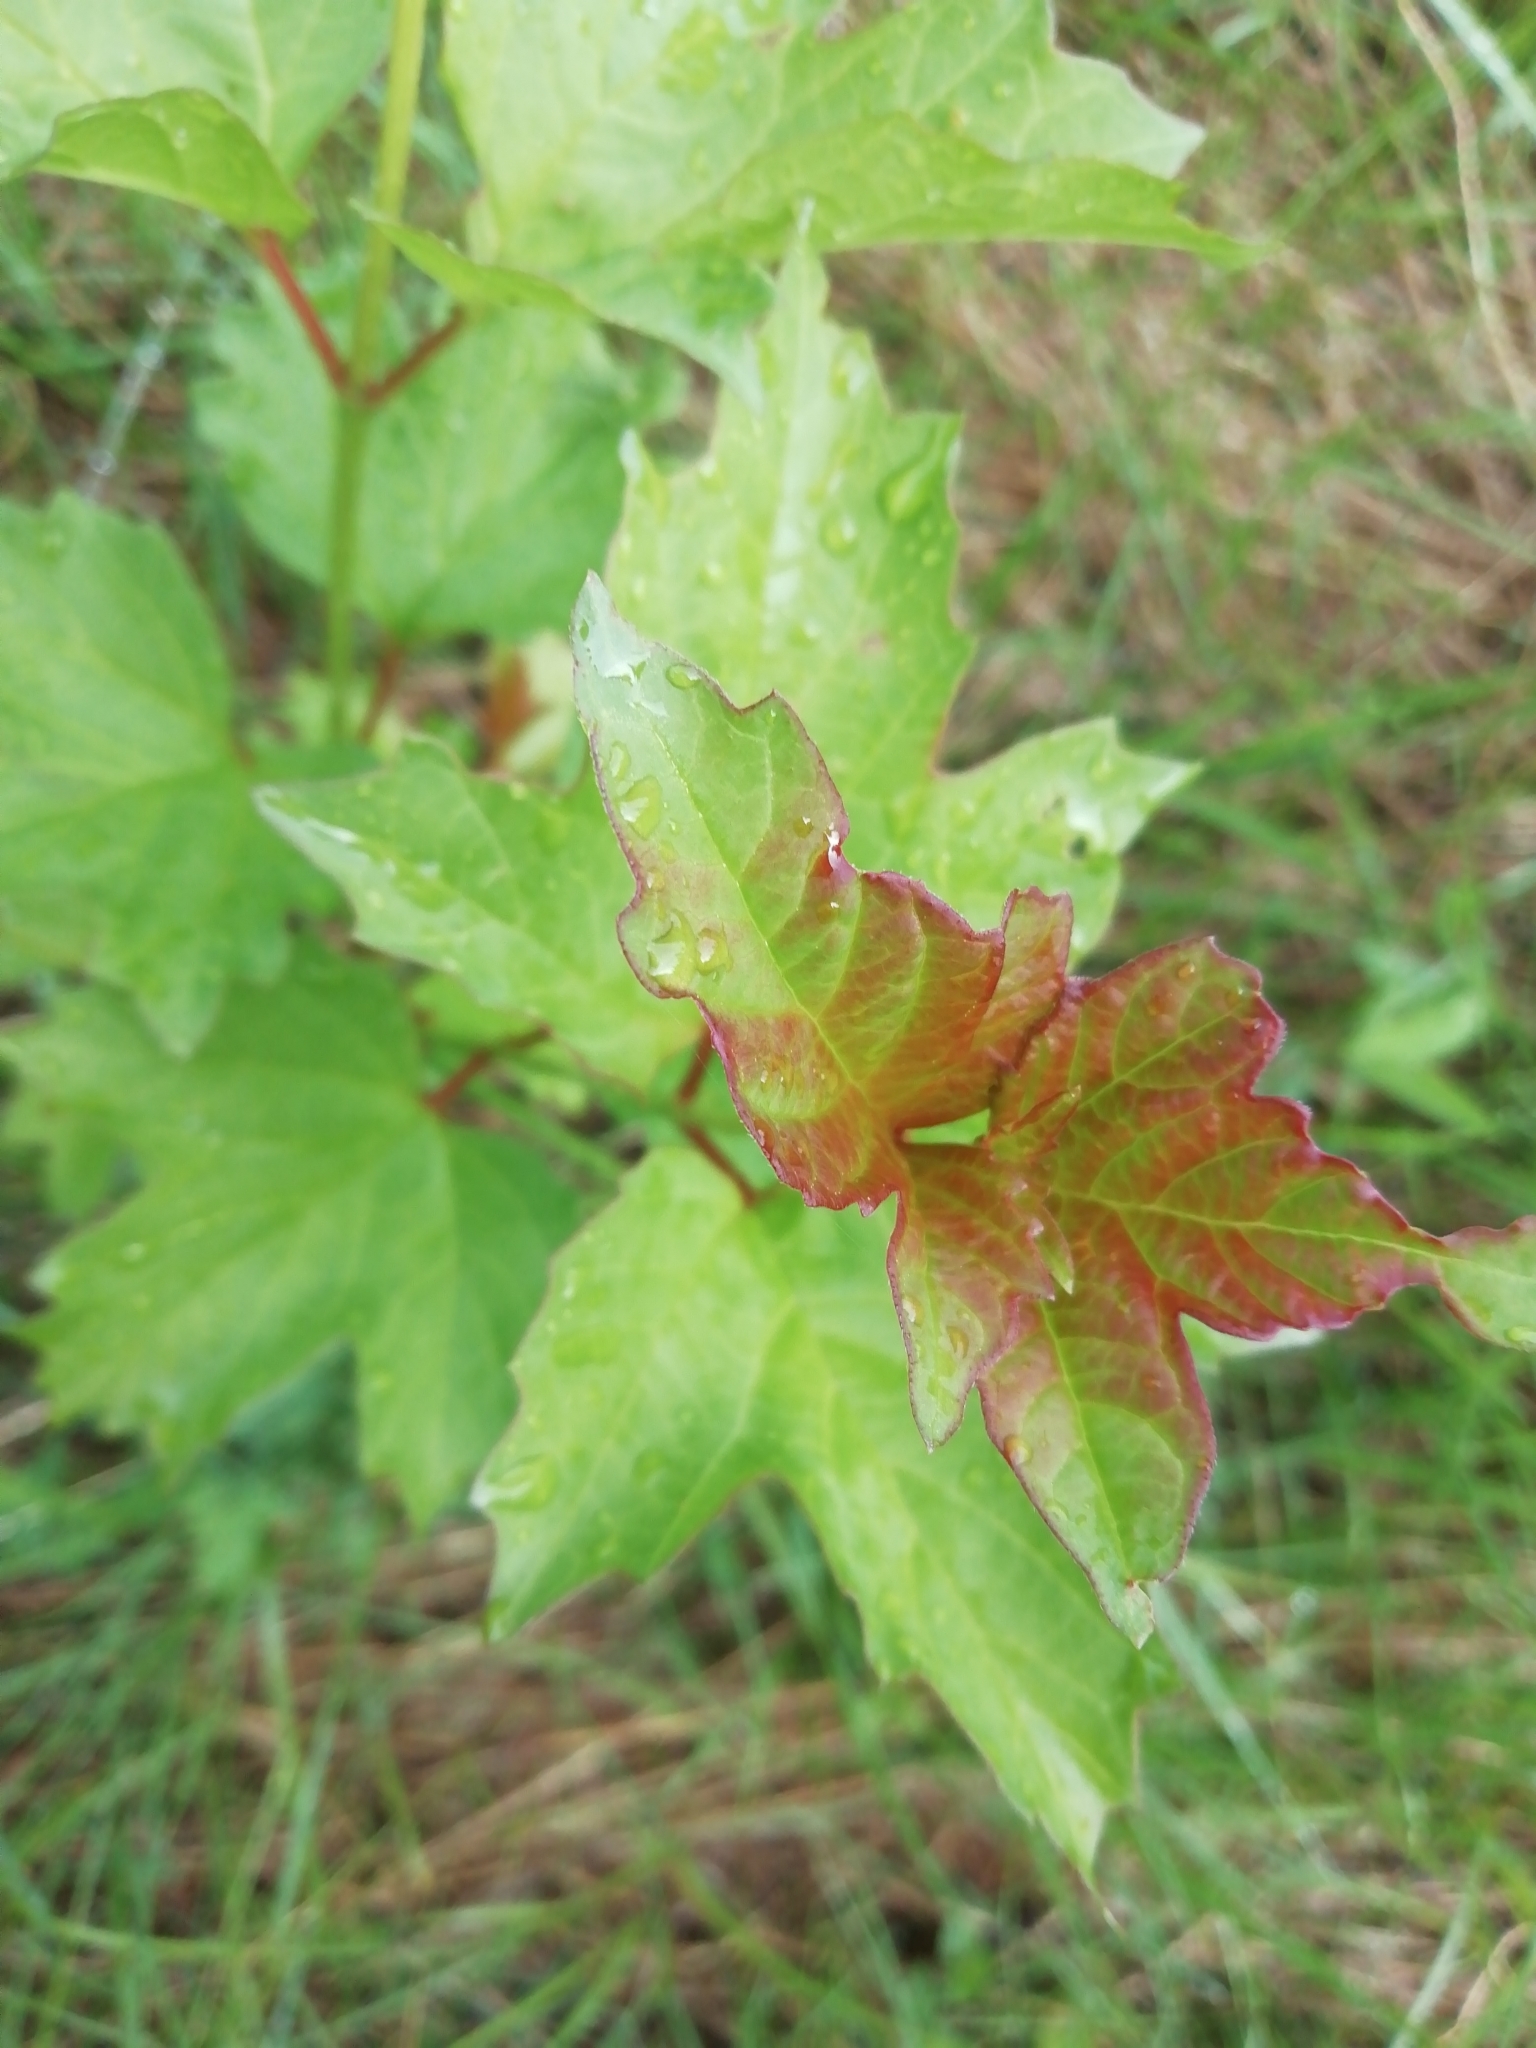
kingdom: Plantae
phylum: Tracheophyta
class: Magnoliopsida
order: Dipsacales
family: Viburnaceae
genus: Viburnum
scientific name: Viburnum opulus
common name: Guelder-rose
